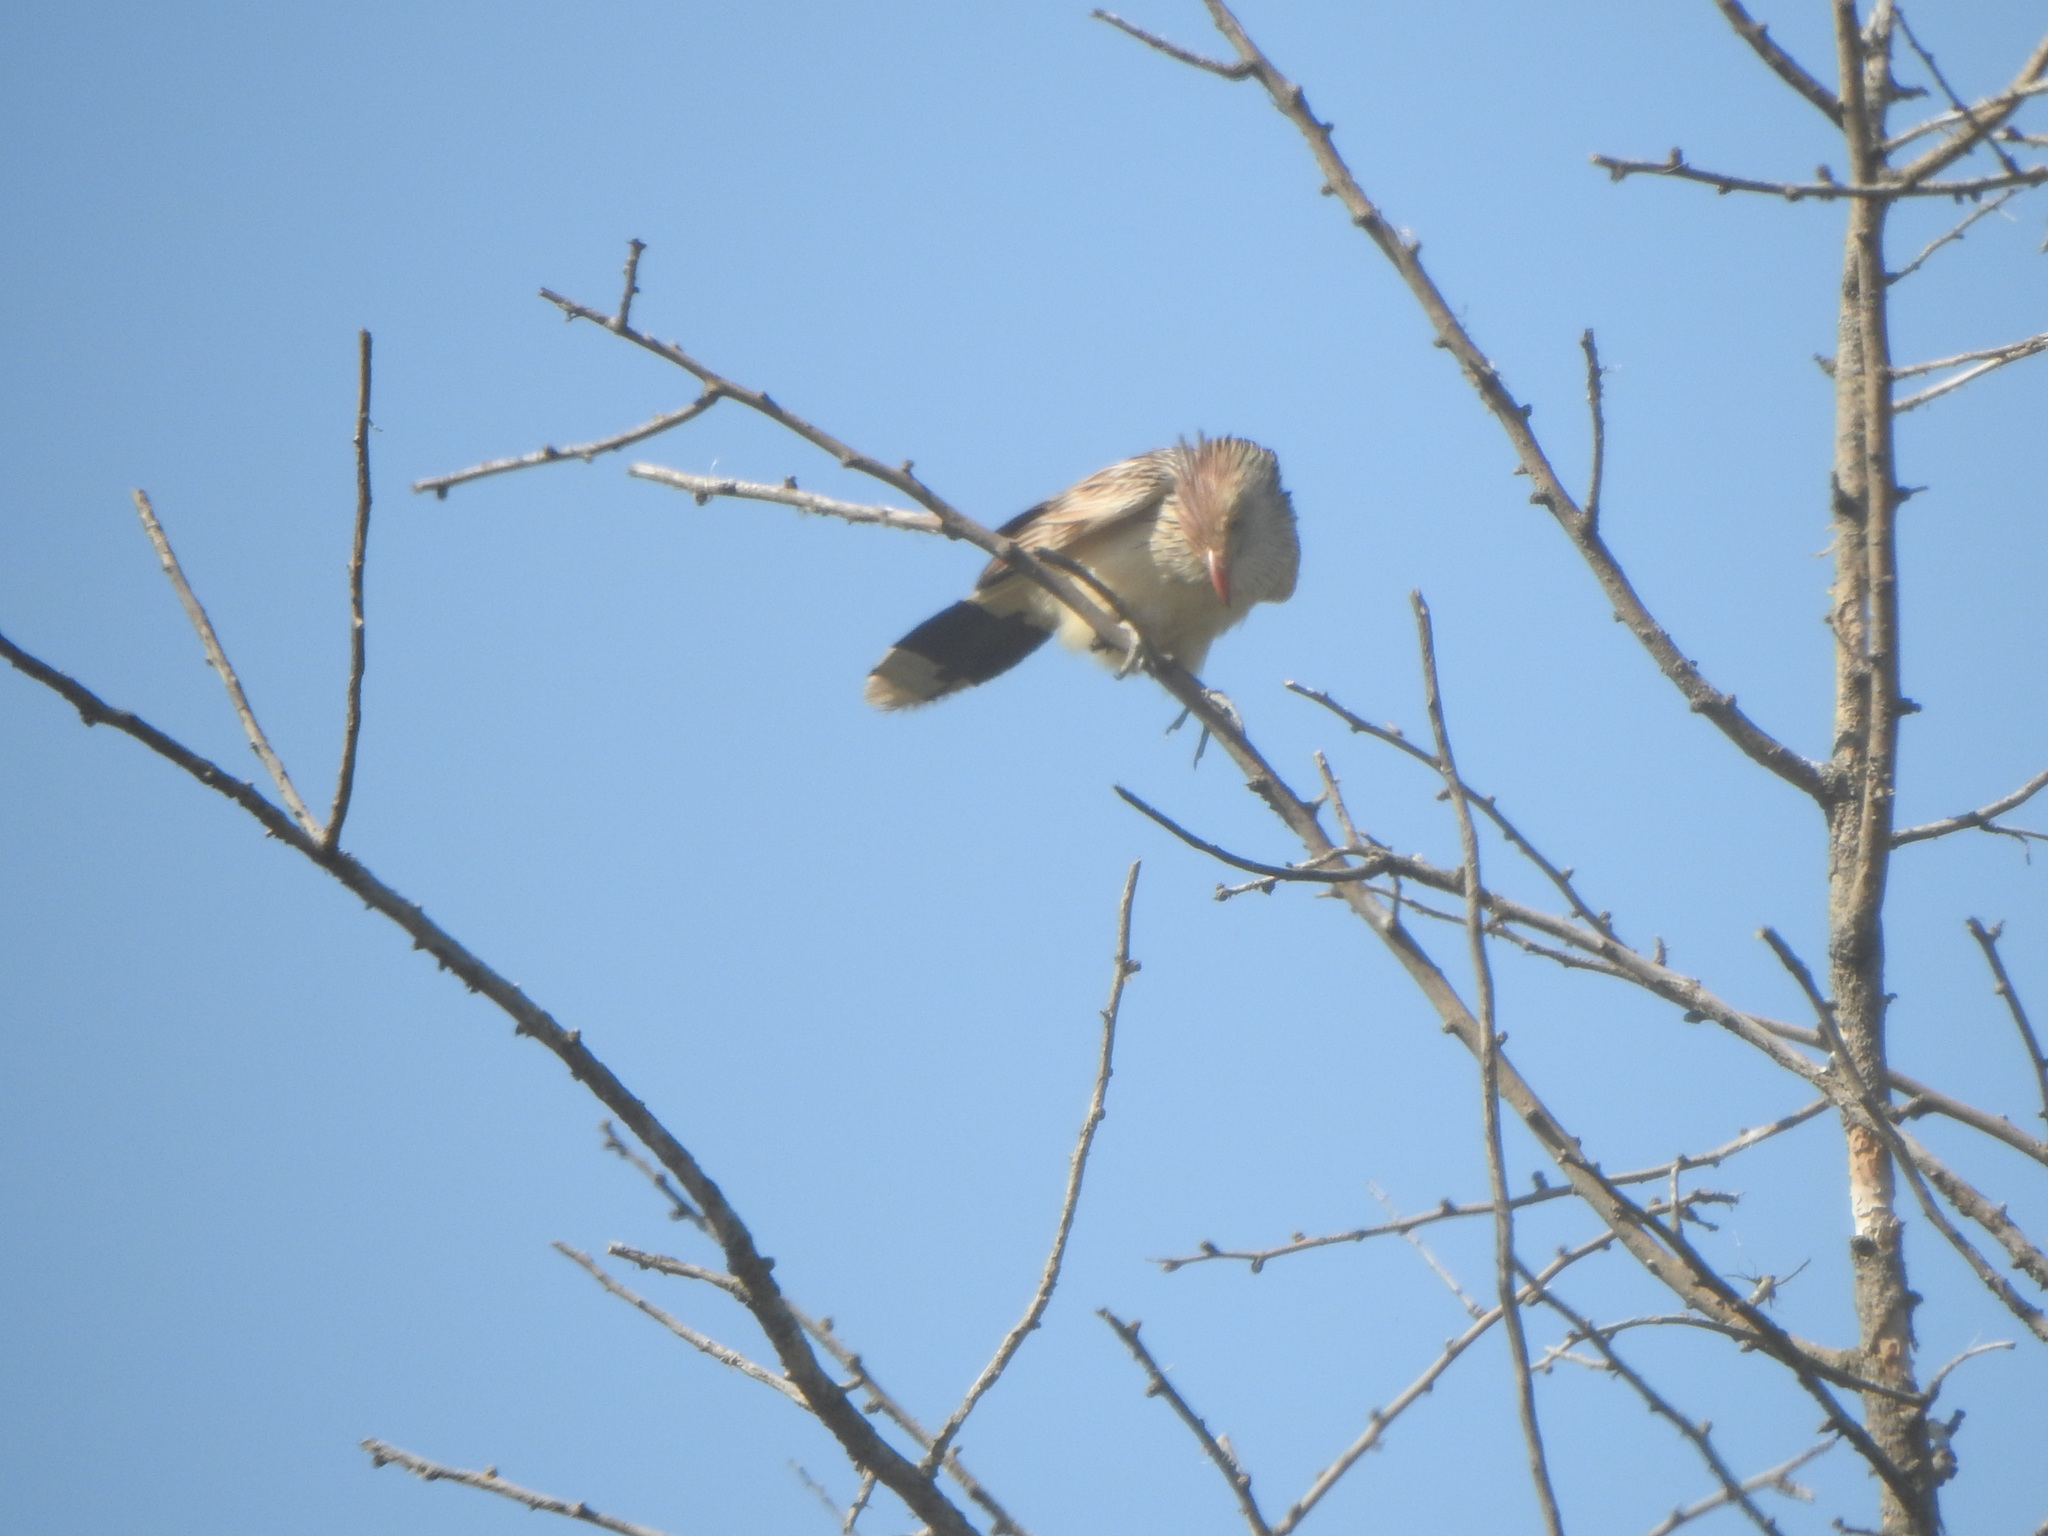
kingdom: Animalia
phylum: Chordata
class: Aves
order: Cuculiformes
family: Cuculidae
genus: Guira
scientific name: Guira guira
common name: Guira cuckoo
